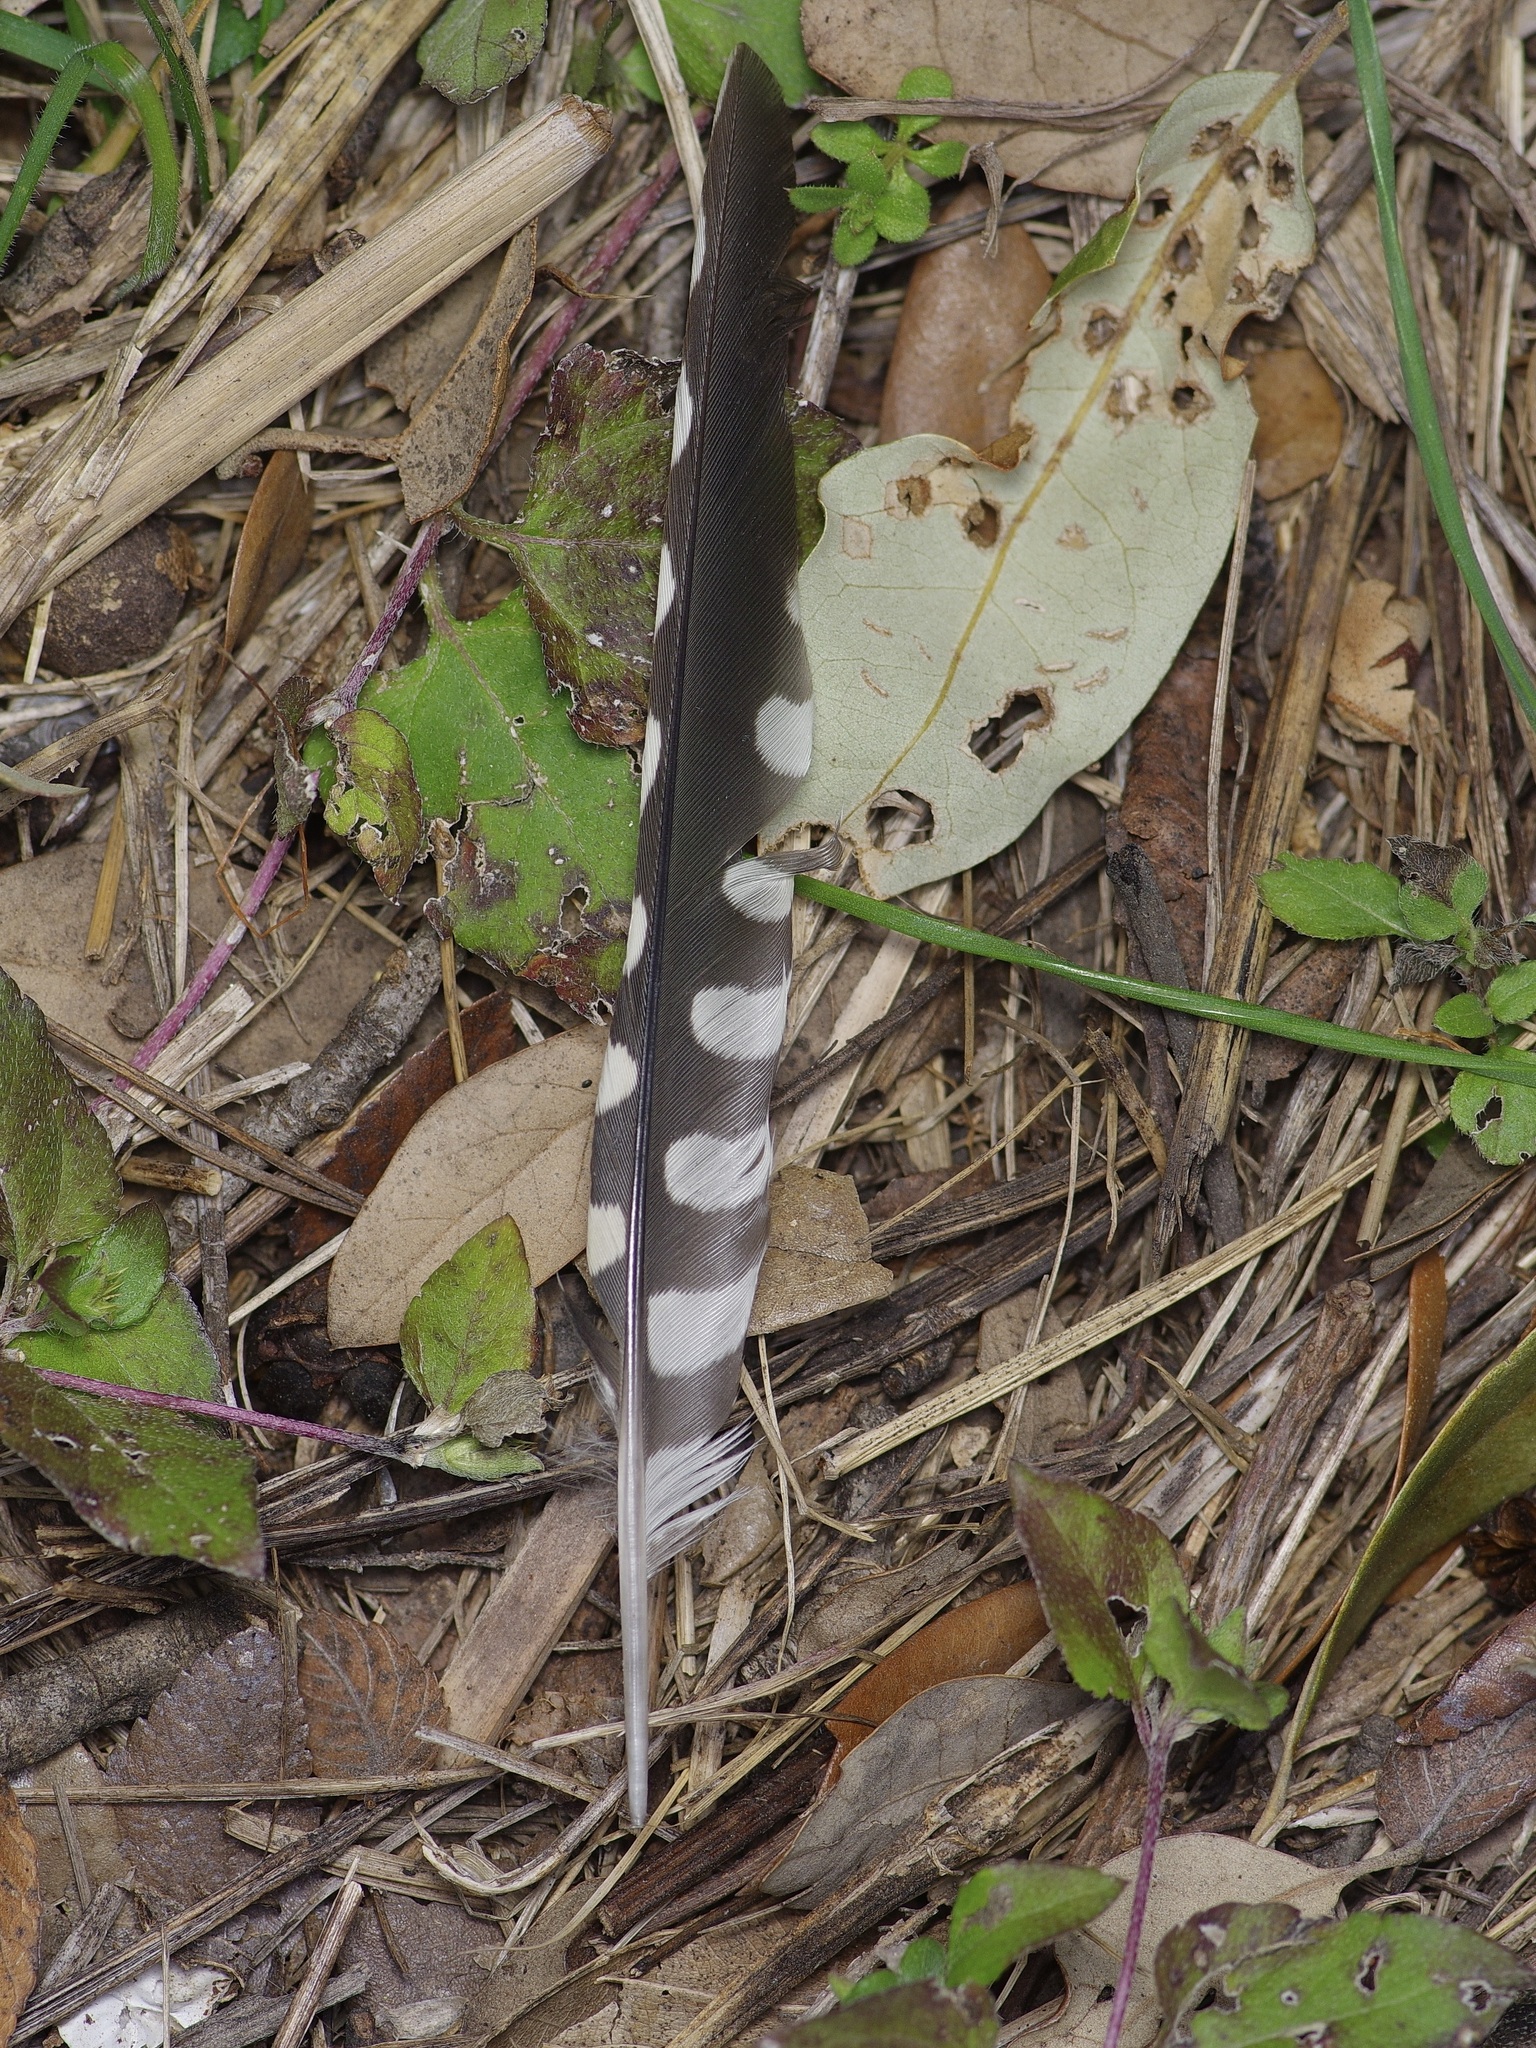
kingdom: Animalia
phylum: Chordata
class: Aves
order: Piciformes
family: Picidae
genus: Sphyrapicus
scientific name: Sphyrapicus varius
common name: Yellow-bellied sapsucker
